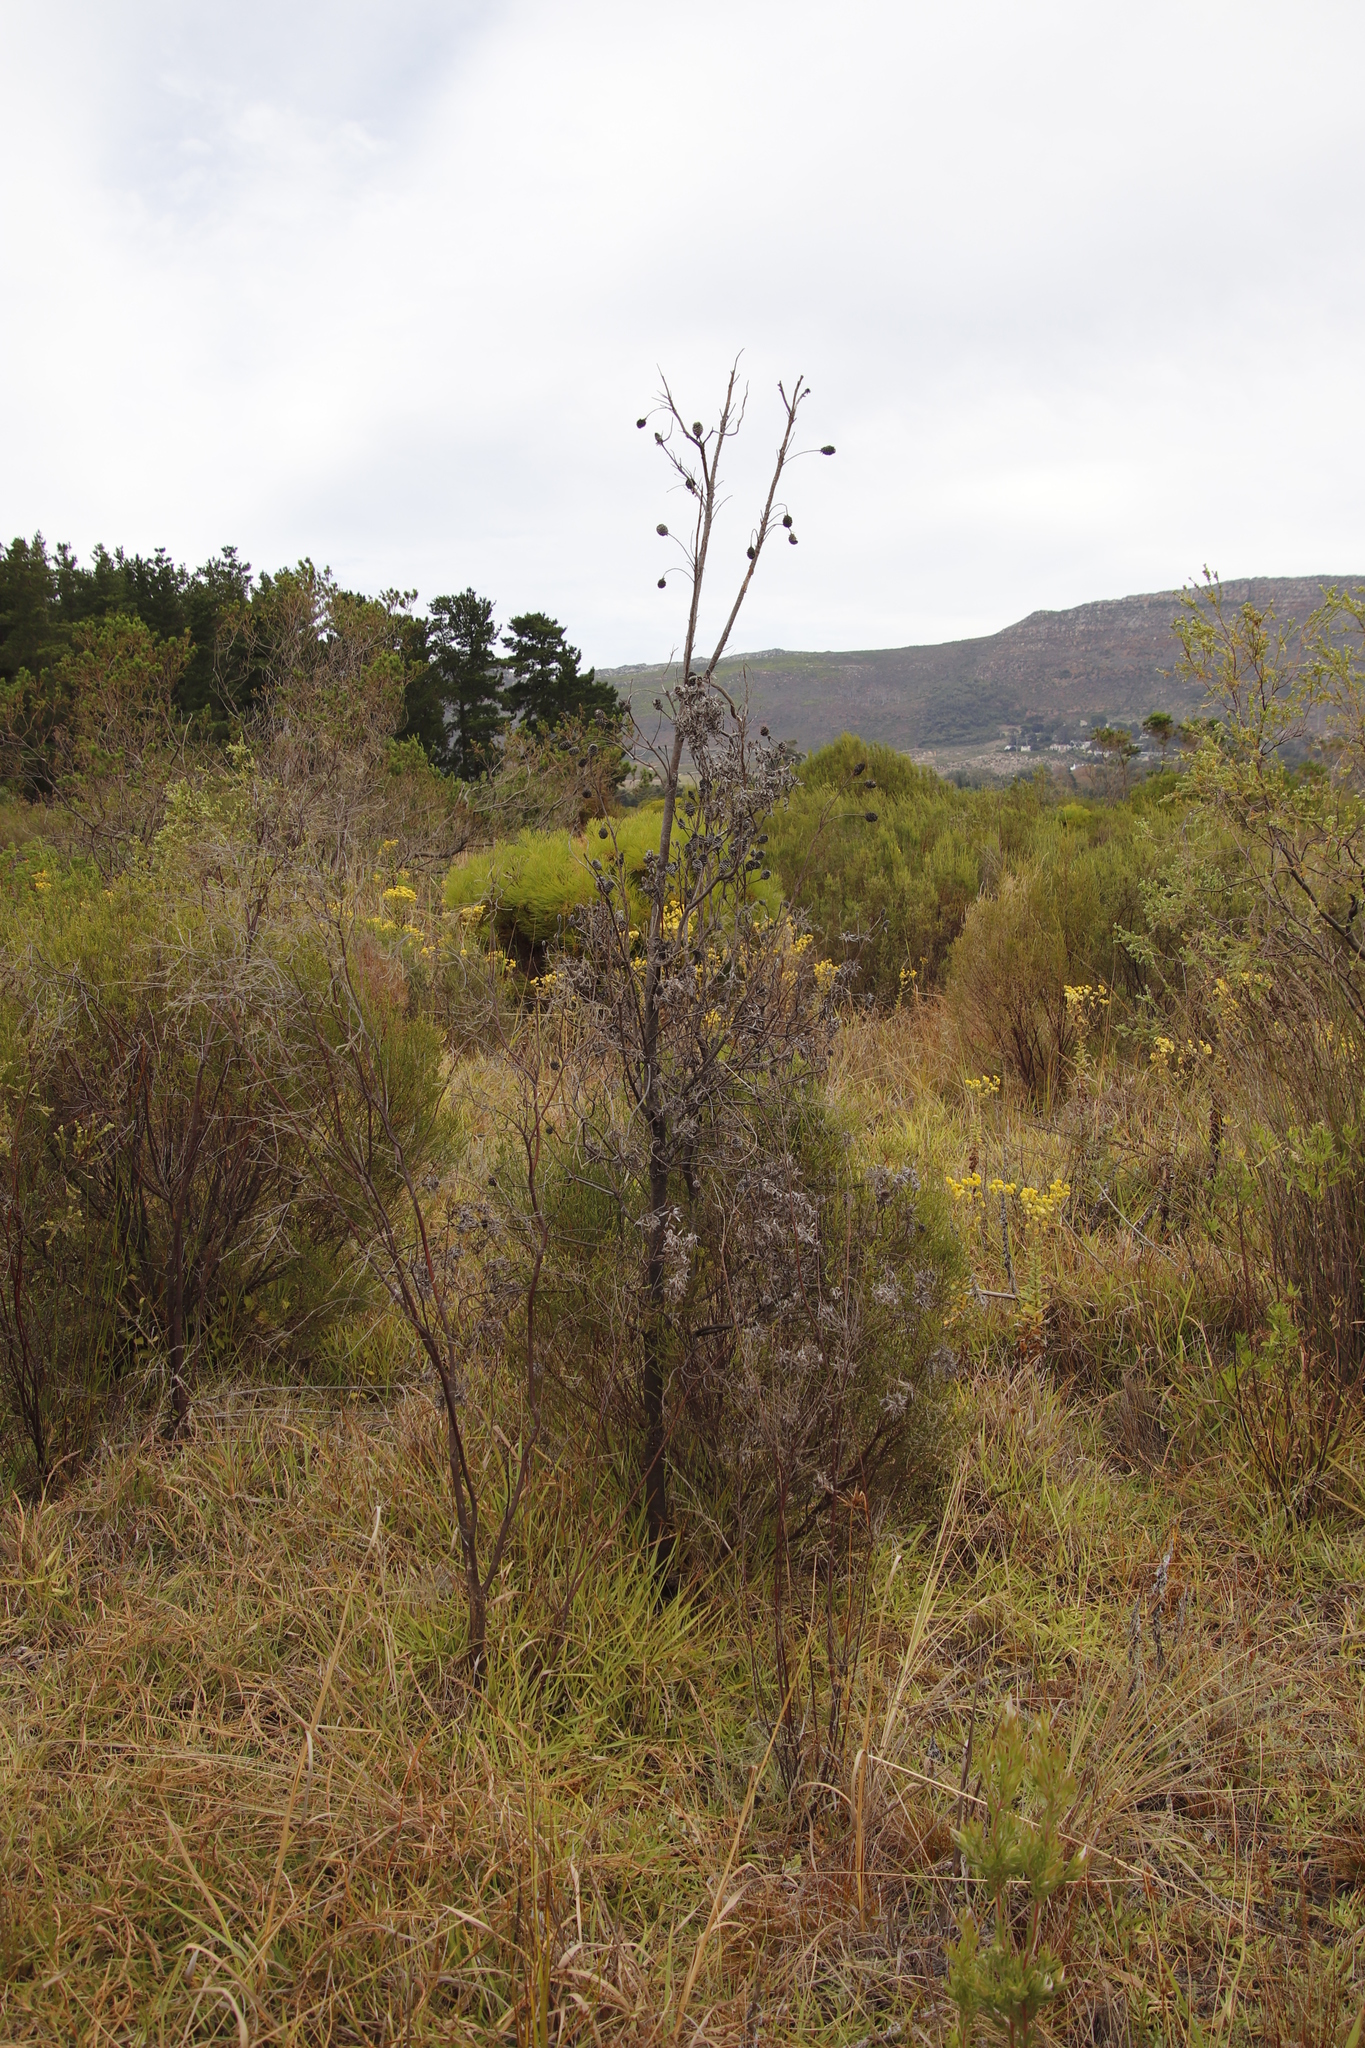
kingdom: Plantae
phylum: Tracheophyta
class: Magnoliopsida
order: Proteales
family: Proteaceae
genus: Leucadendron
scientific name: Leucadendron floridum
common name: Flats conebush
